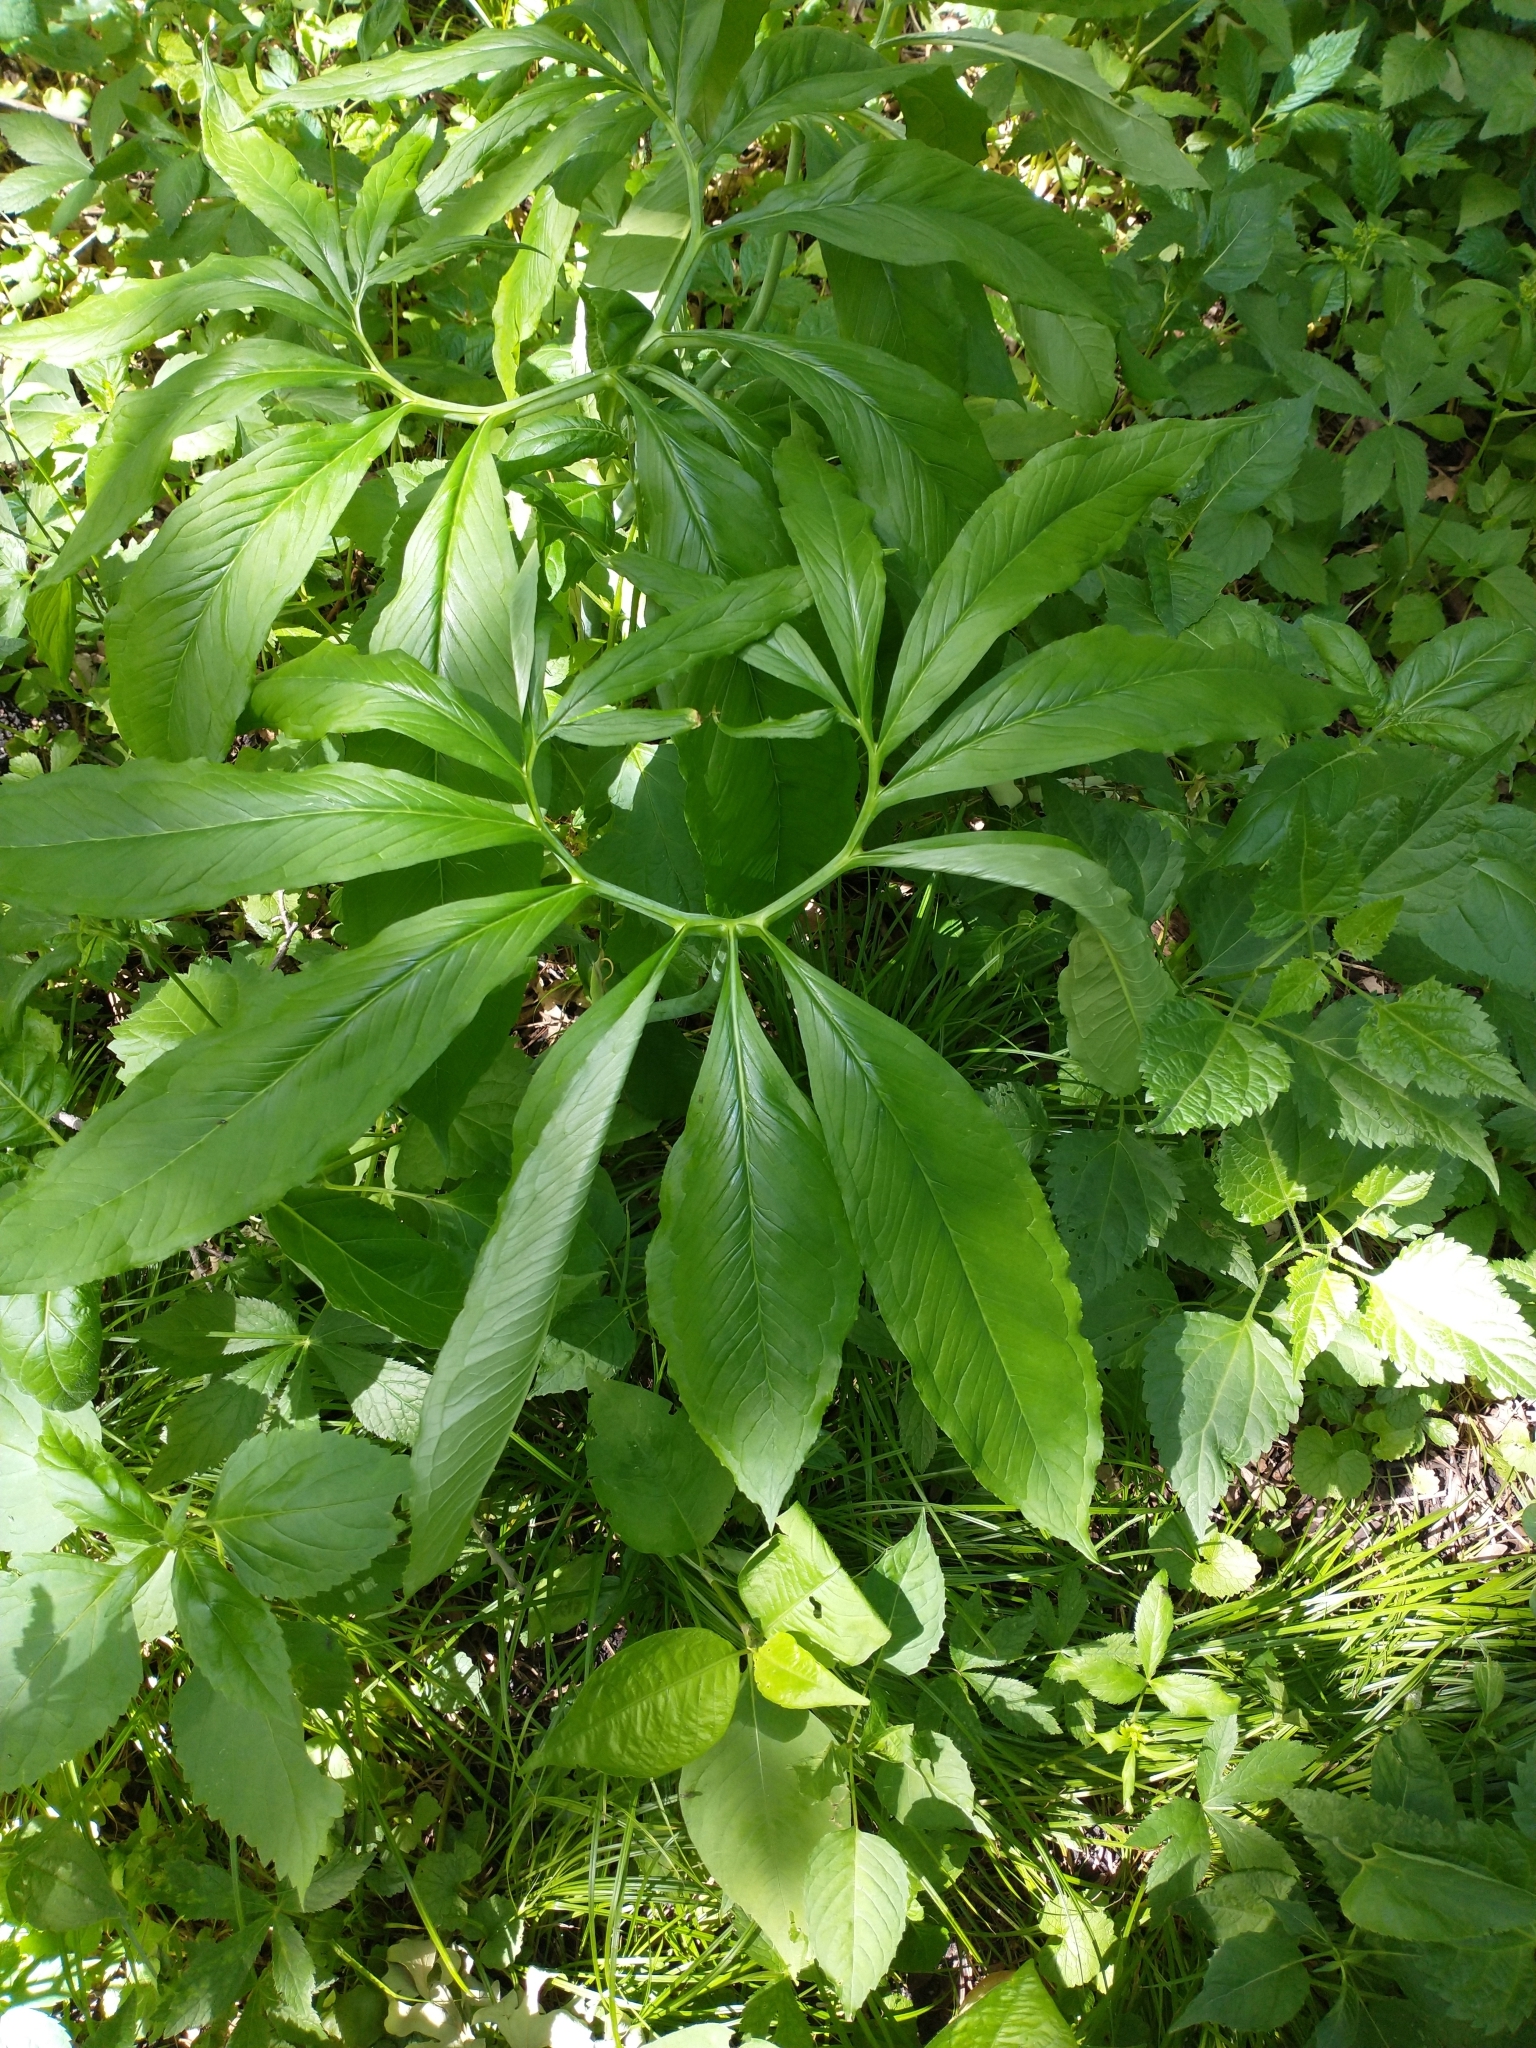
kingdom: Plantae
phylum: Tracheophyta
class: Liliopsida
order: Alismatales
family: Araceae
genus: Arisaema
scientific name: Arisaema dracontium
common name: Dragon-arum
